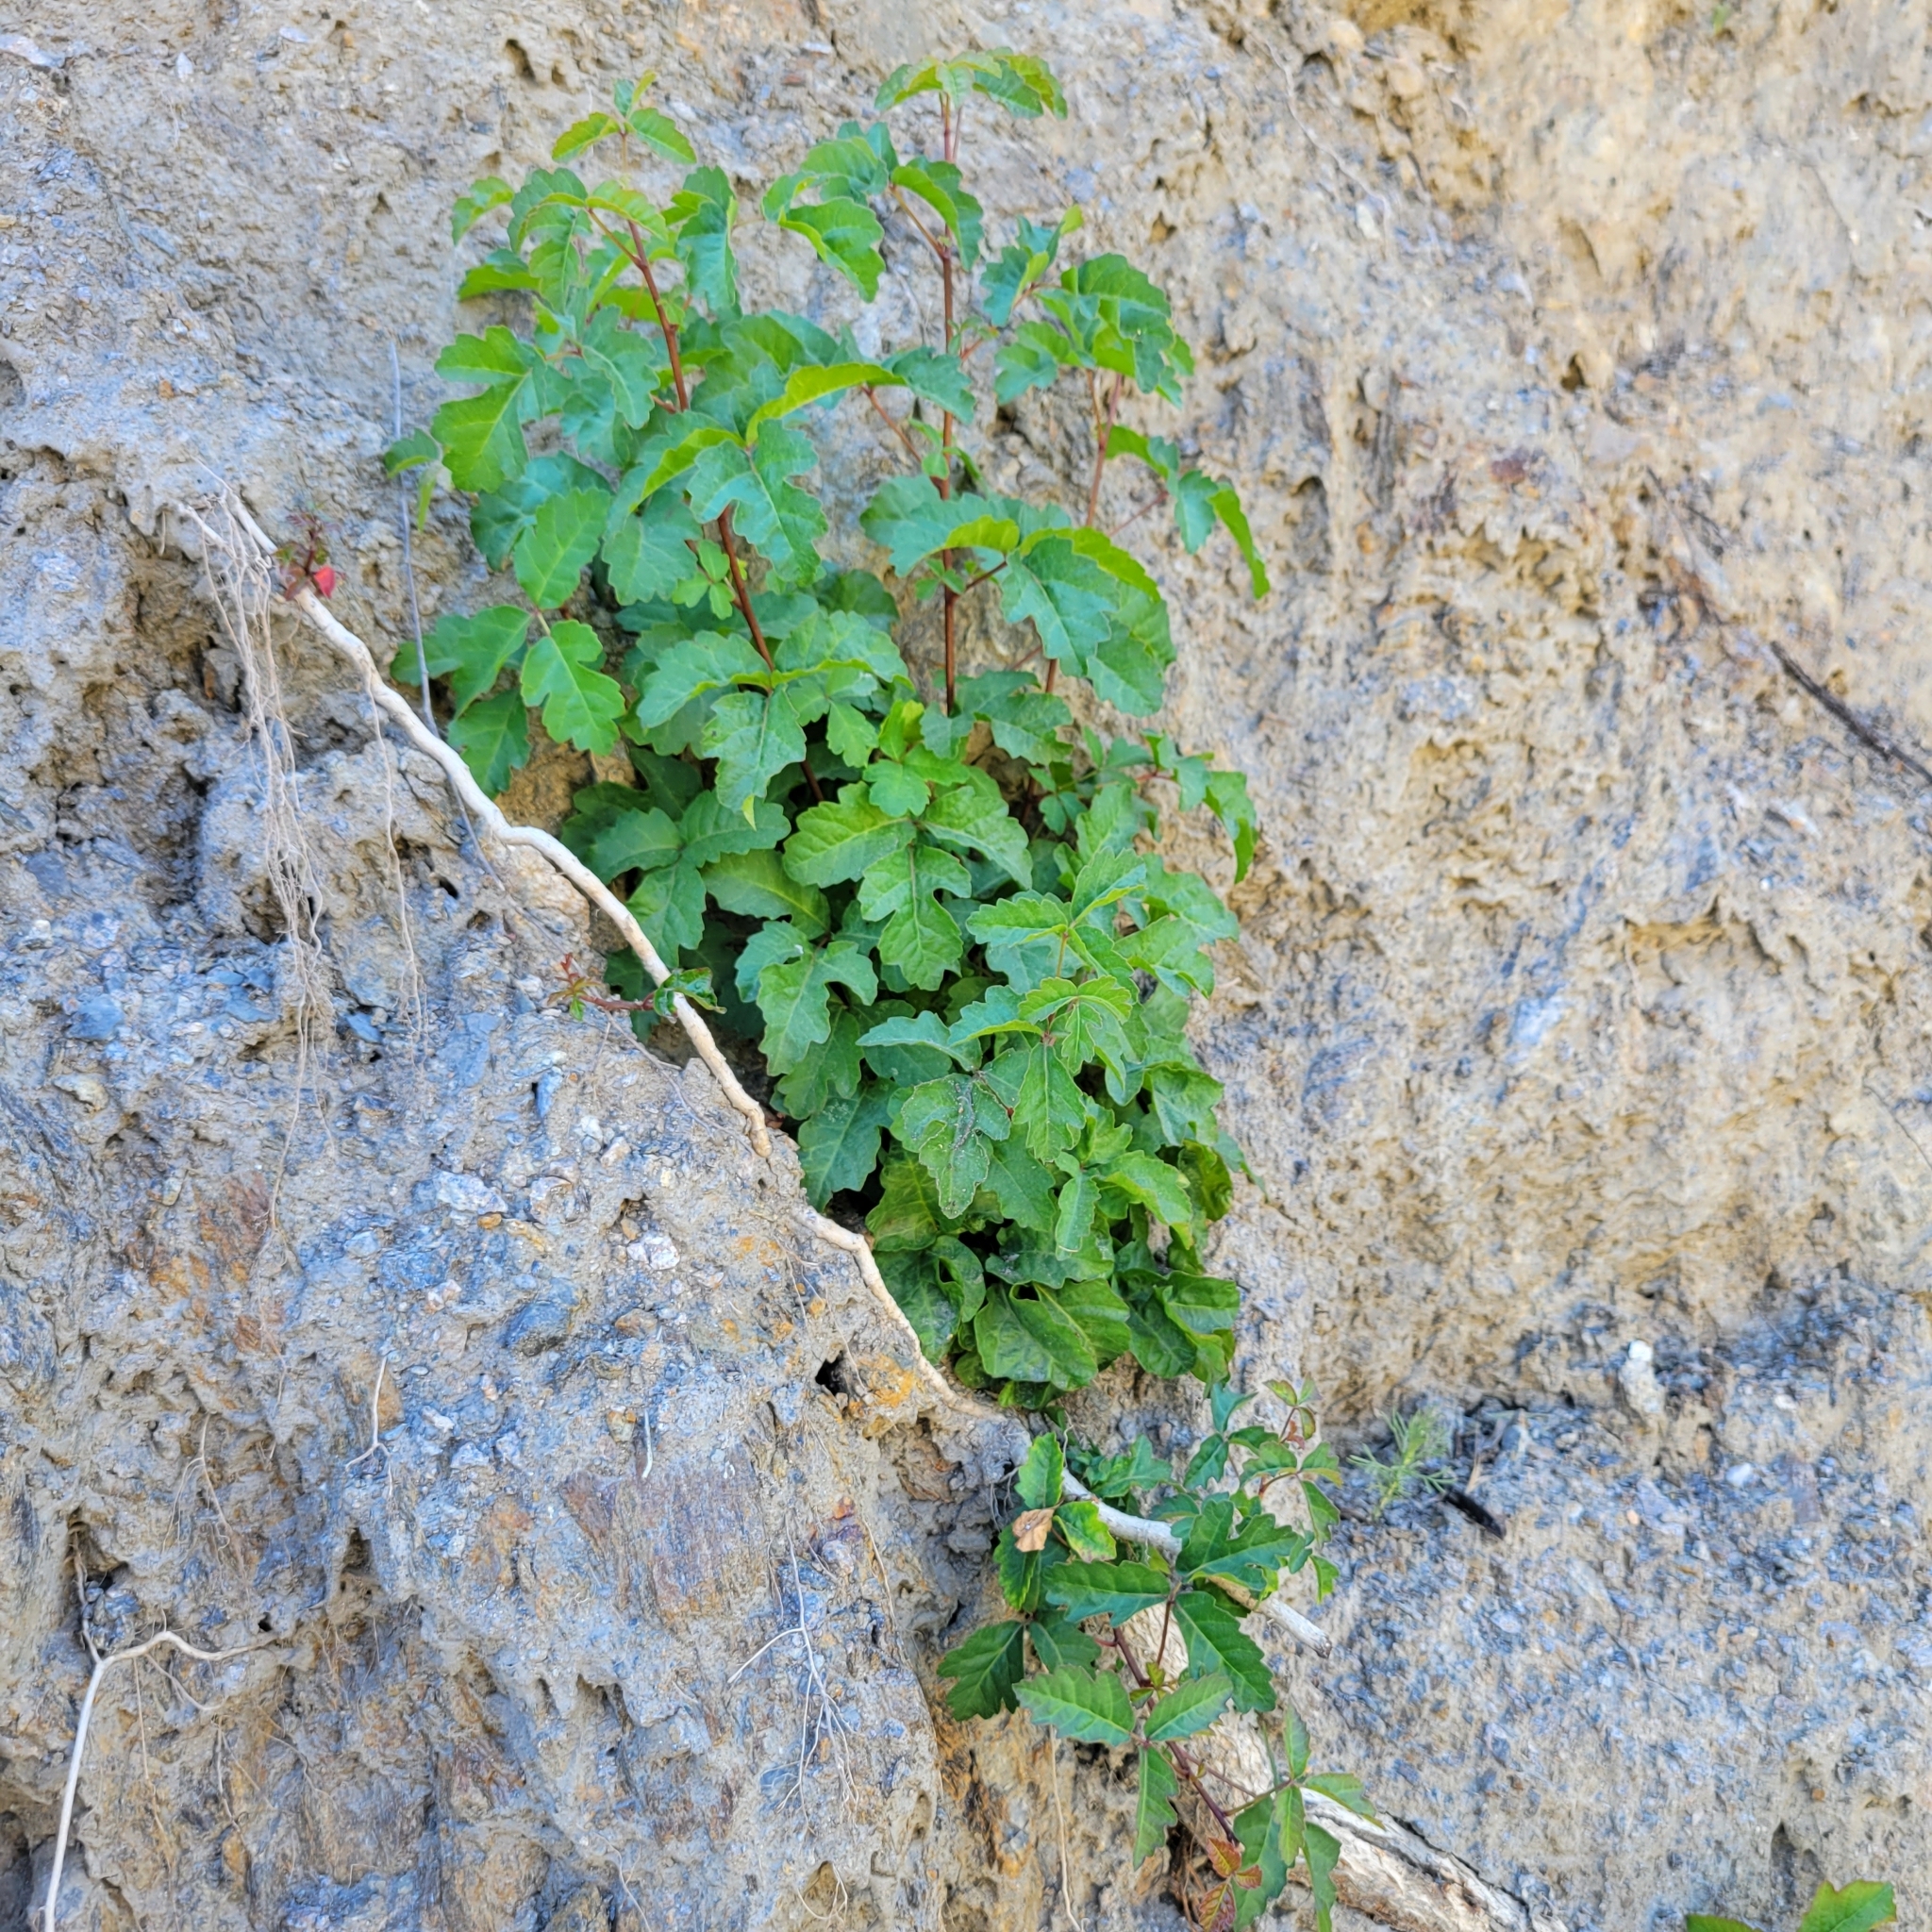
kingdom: Plantae
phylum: Tracheophyta
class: Magnoliopsida
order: Sapindales
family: Anacardiaceae
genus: Toxicodendron
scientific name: Toxicodendron diversilobum
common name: Pacific poison-oak
